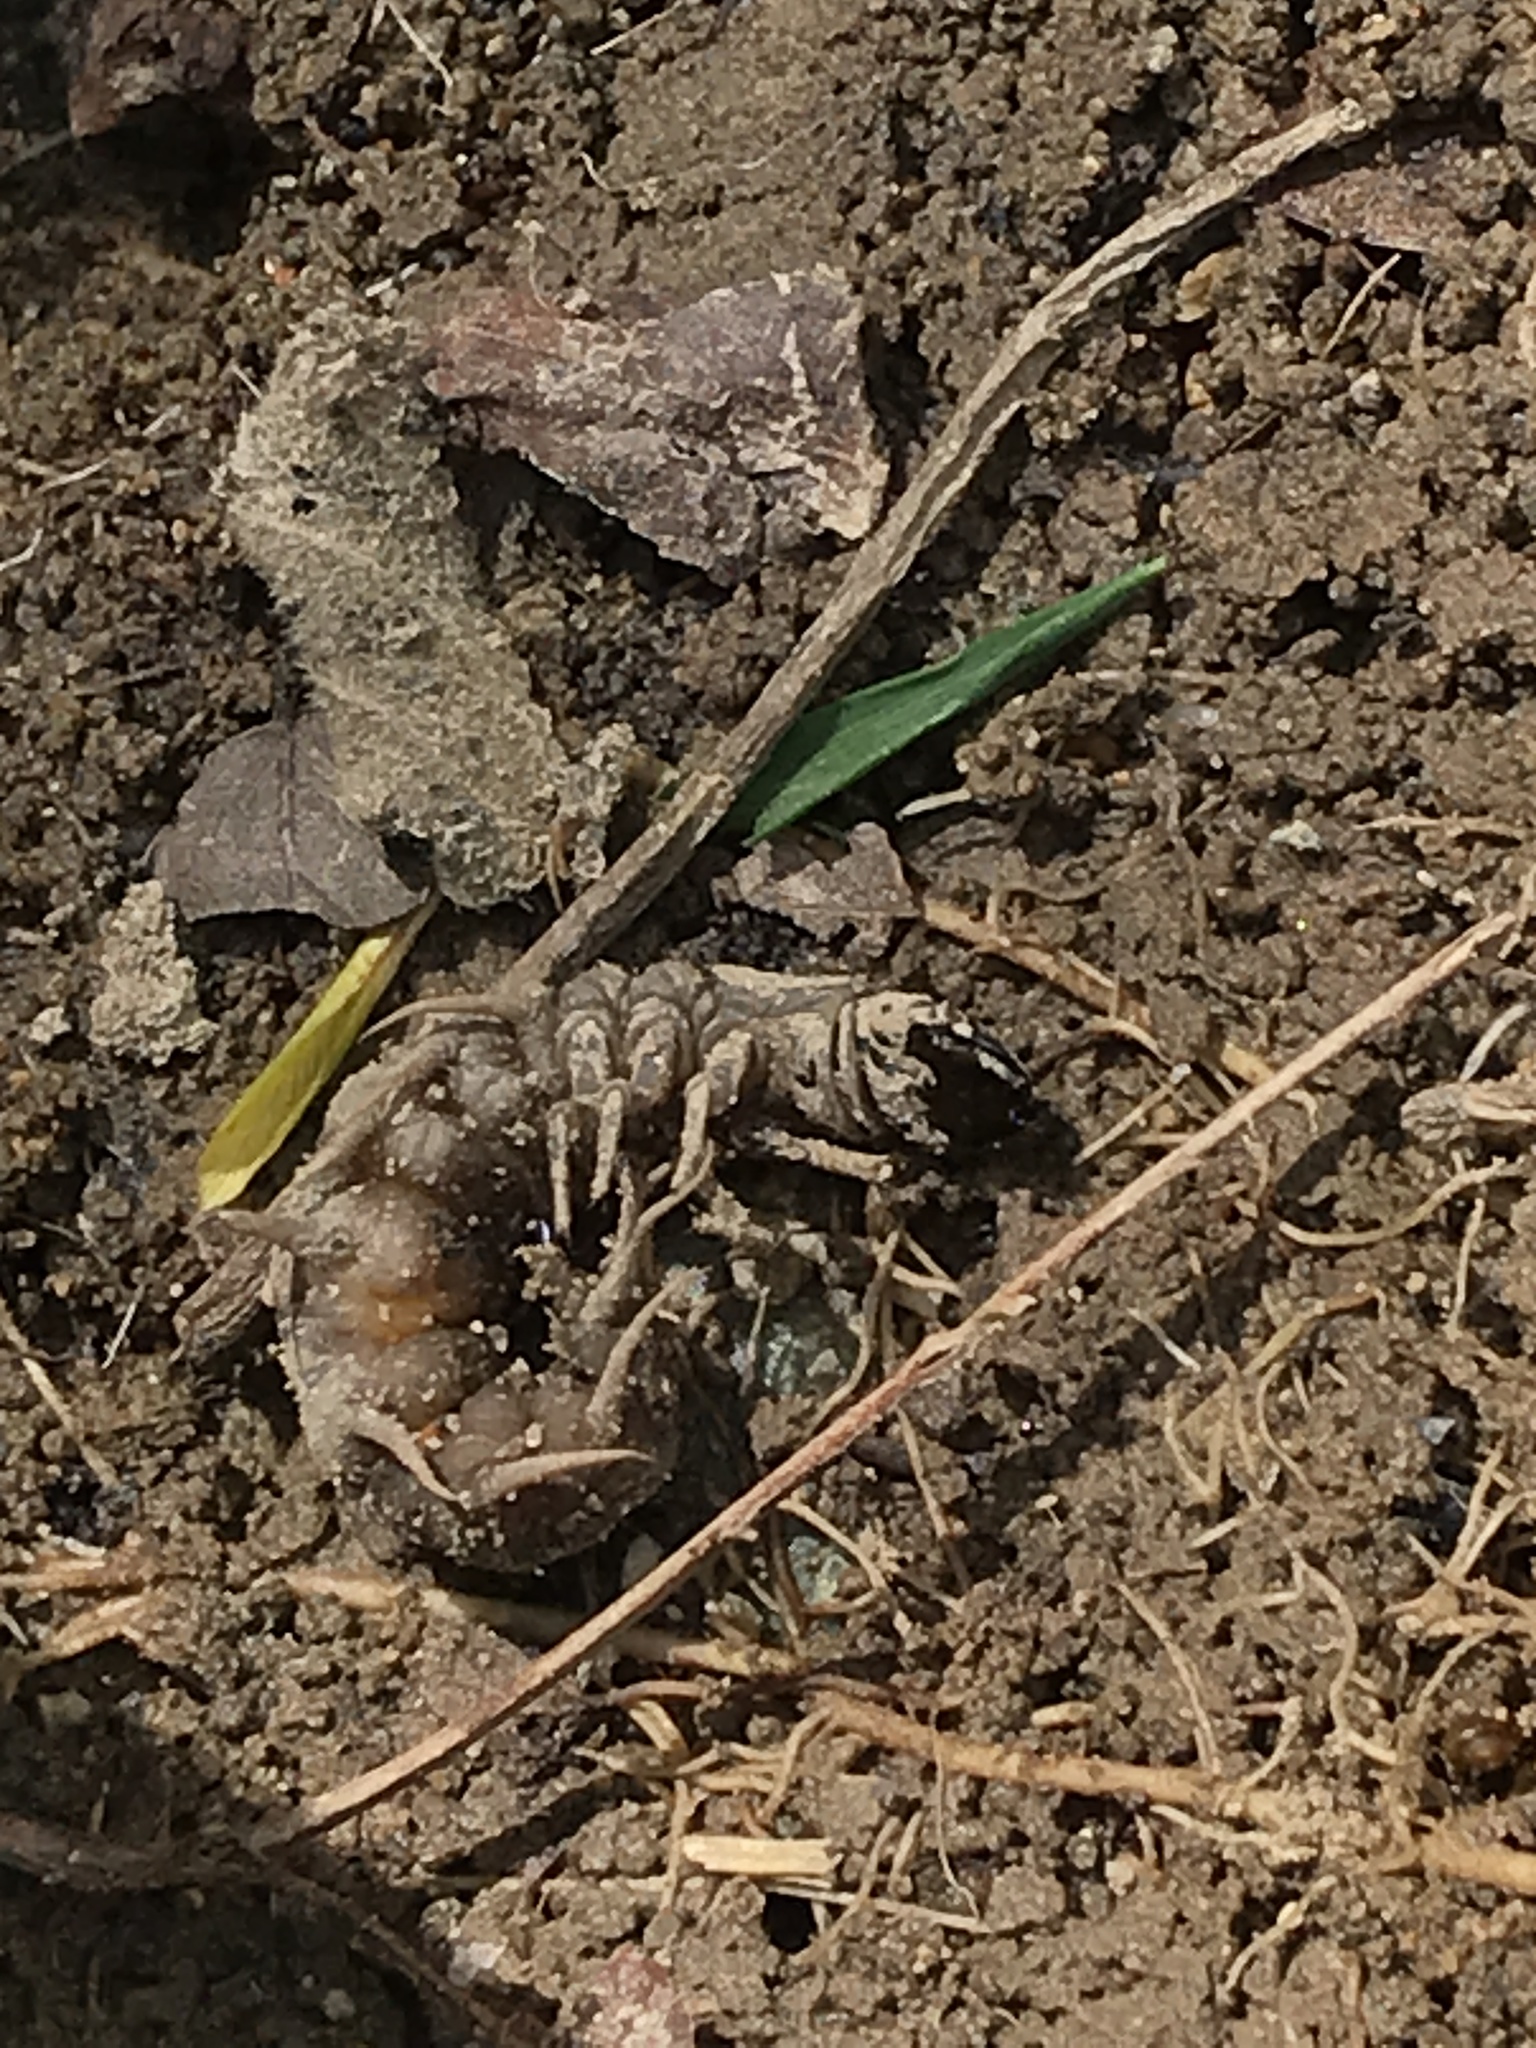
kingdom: Animalia
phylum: Arthropoda
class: Insecta
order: Megaloptera
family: Corydalidae
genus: Archichauliodes
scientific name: Archichauliodes diversus
